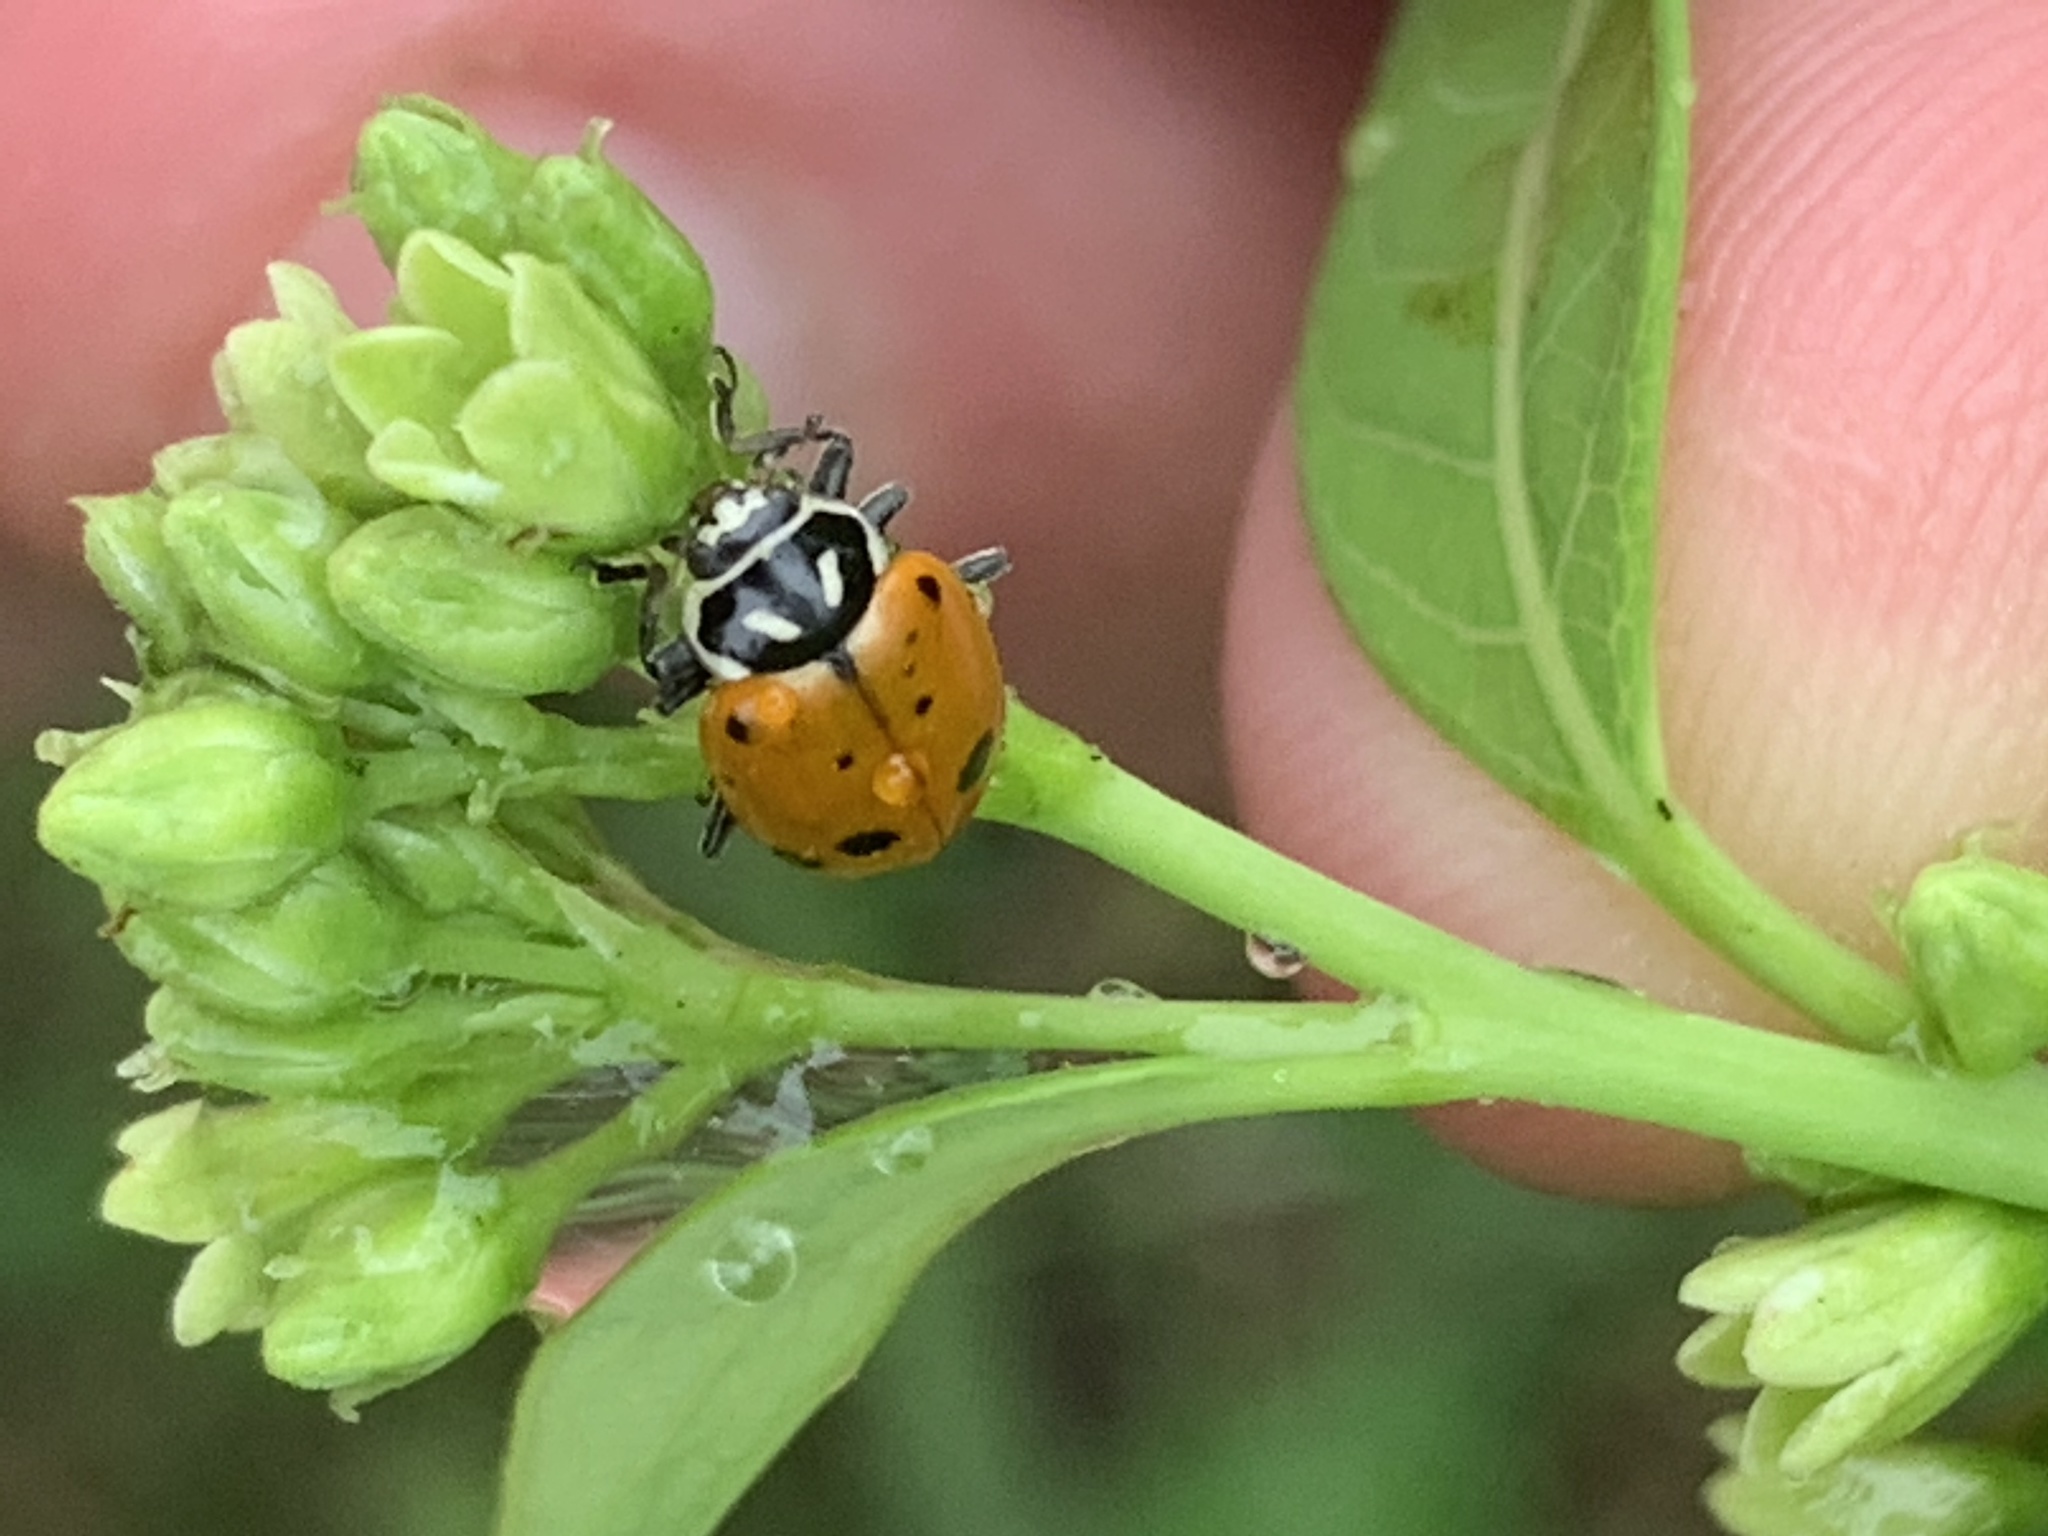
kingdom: Animalia
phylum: Arthropoda
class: Insecta
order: Coleoptera
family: Coccinellidae
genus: Hippodamia
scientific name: Hippodamia convergens
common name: Convergent lady beetle
